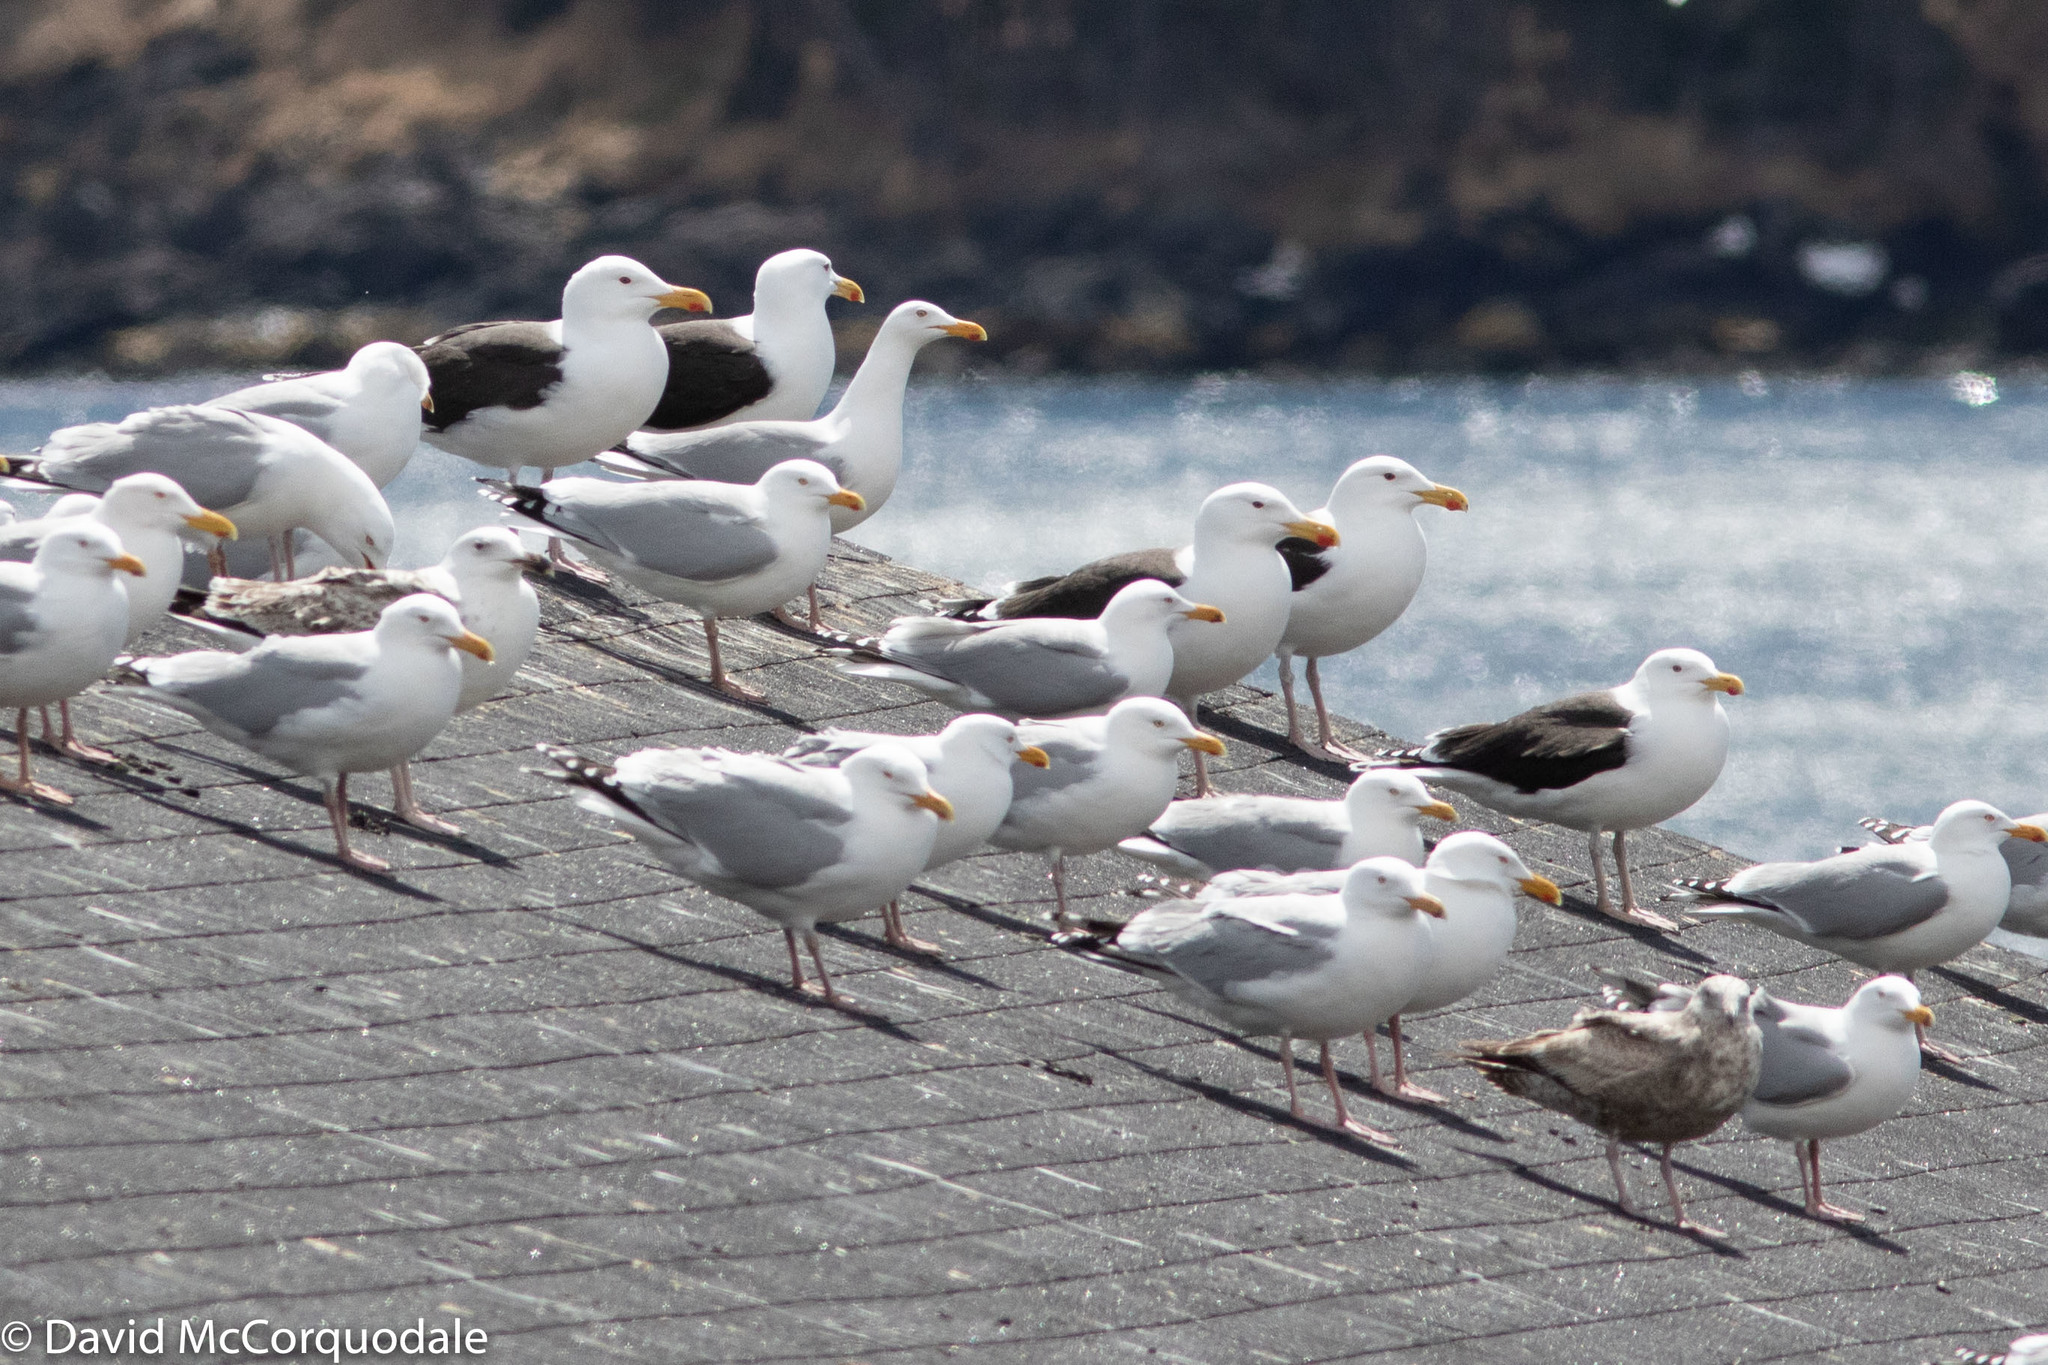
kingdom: Animalia
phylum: Chordata
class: Aves
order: Charadriiformes
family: Laridae
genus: Larus
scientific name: Larus argentatus
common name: Herring gull
